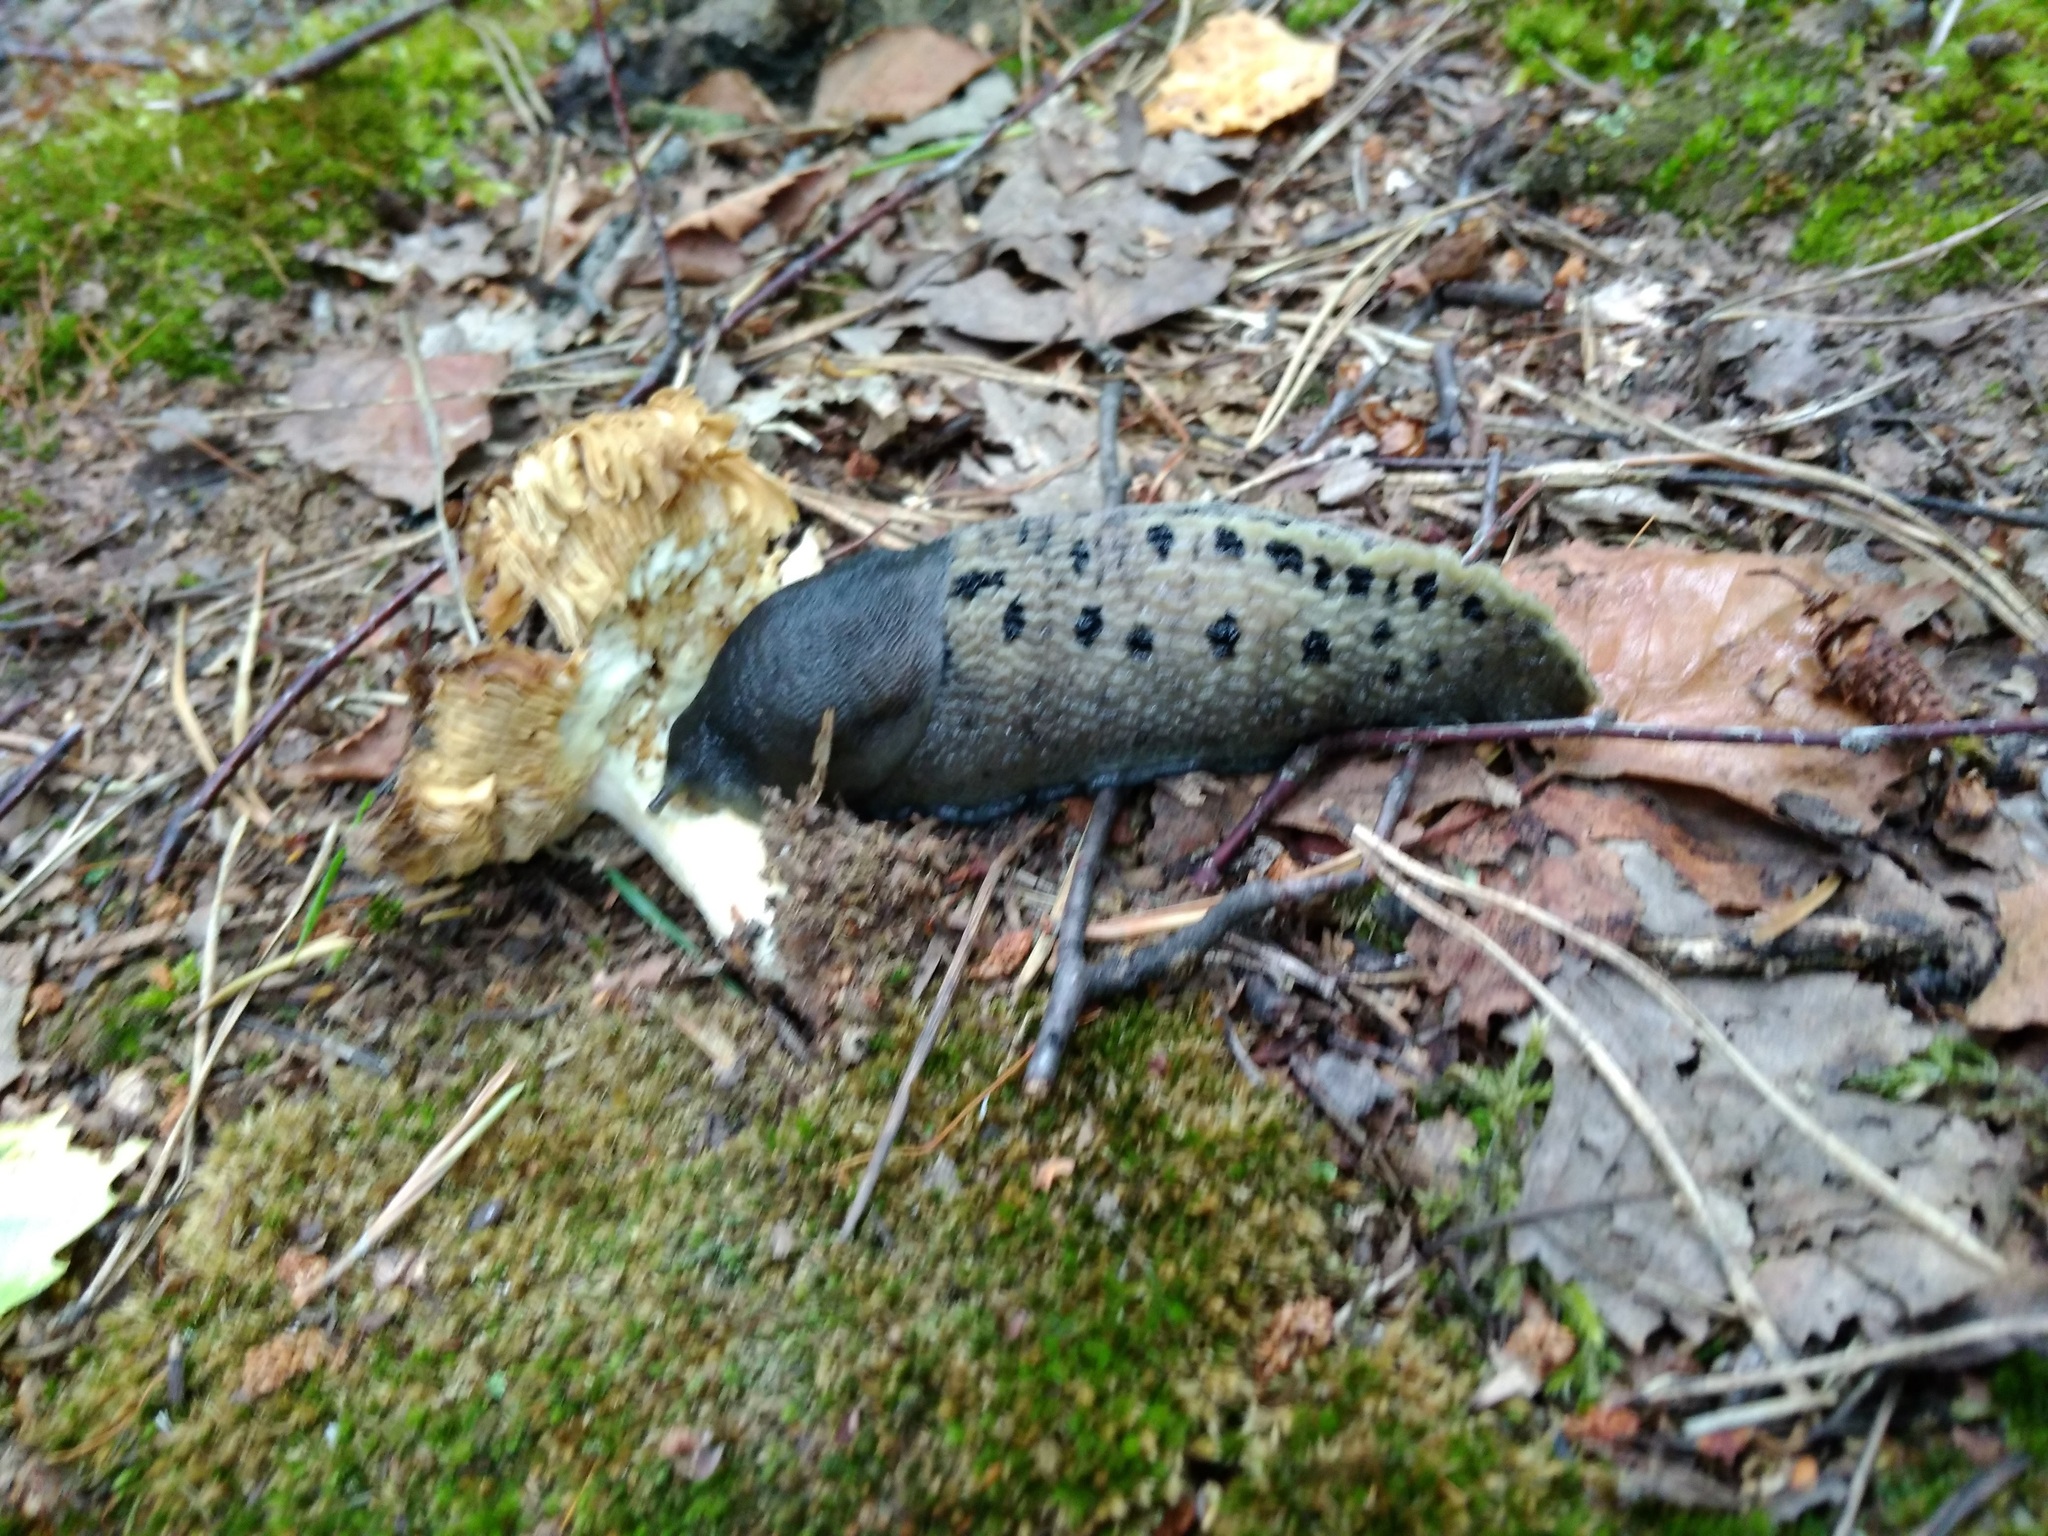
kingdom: Animalia
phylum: Mollusca
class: Gastropoda
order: Stylommatophora
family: Limacidae
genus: Limax
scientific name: Limax cinereoniger
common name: Ash-black slug
